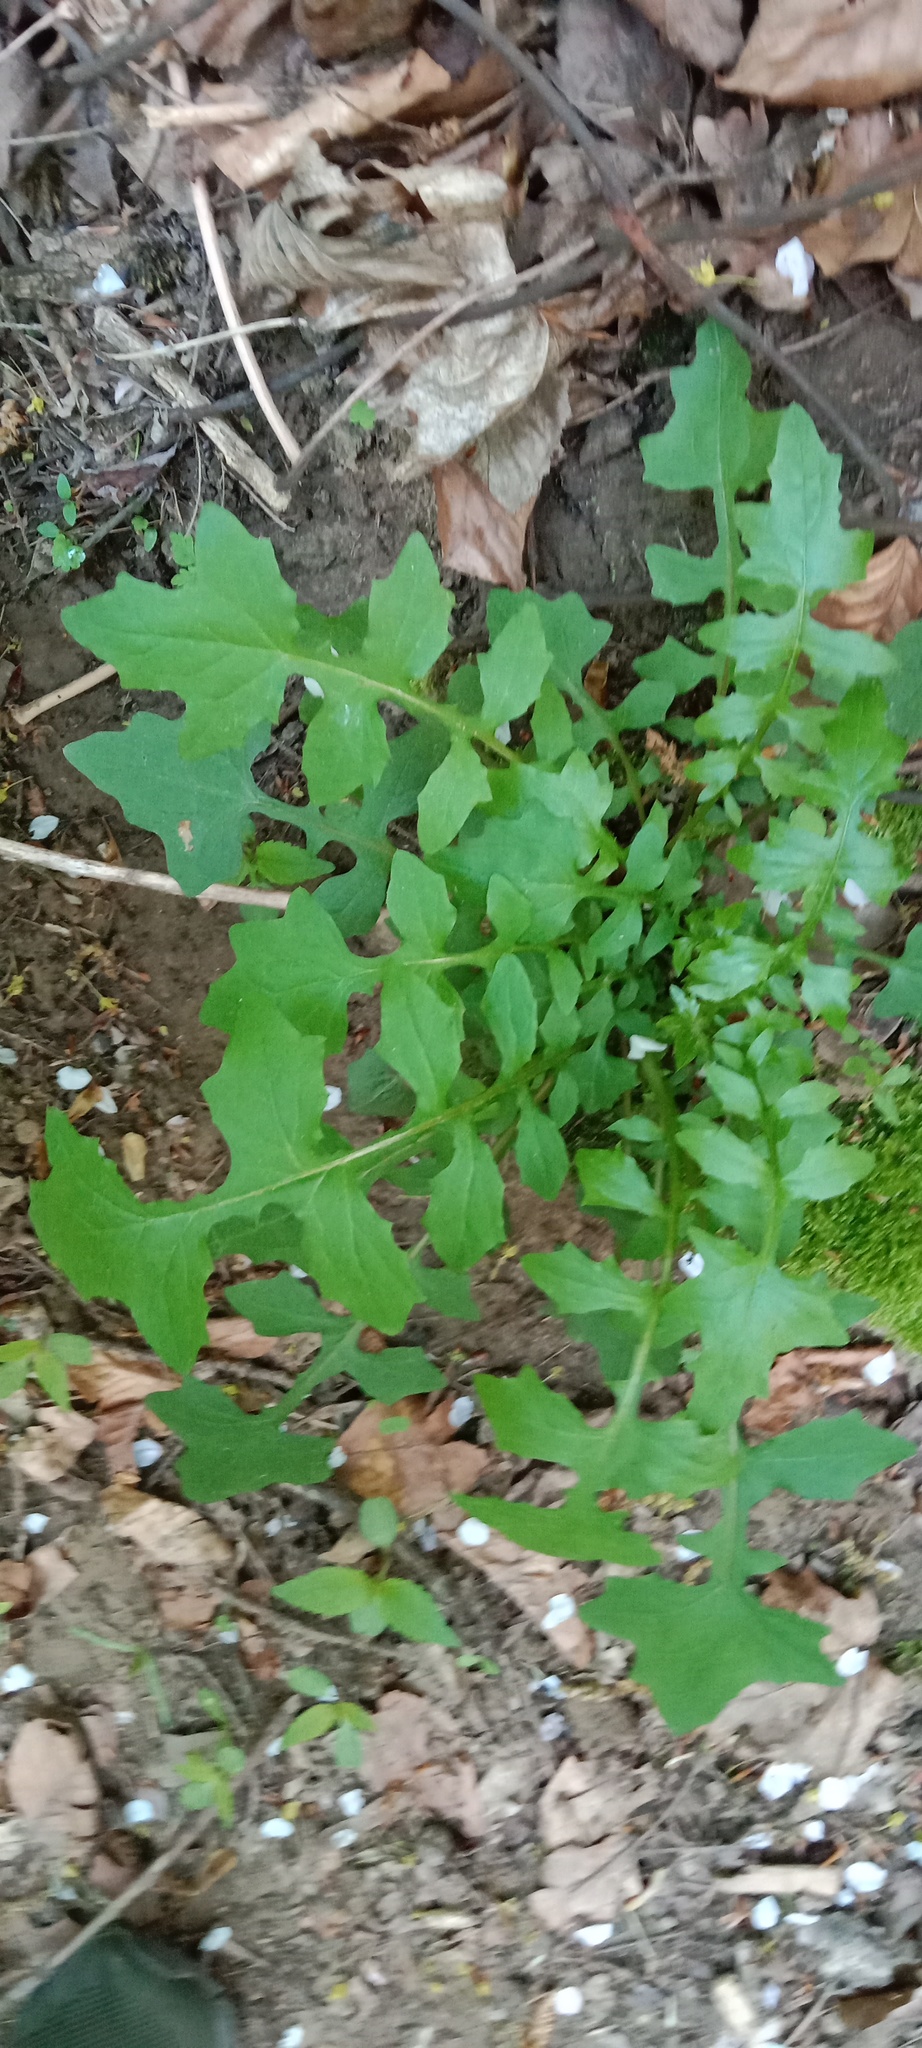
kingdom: Plantae
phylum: Tracheophyta
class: Magnoliopsida
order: Asterales
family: Asteraceae
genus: Mycelis
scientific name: Mycelis muralis
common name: Wall lettuce
